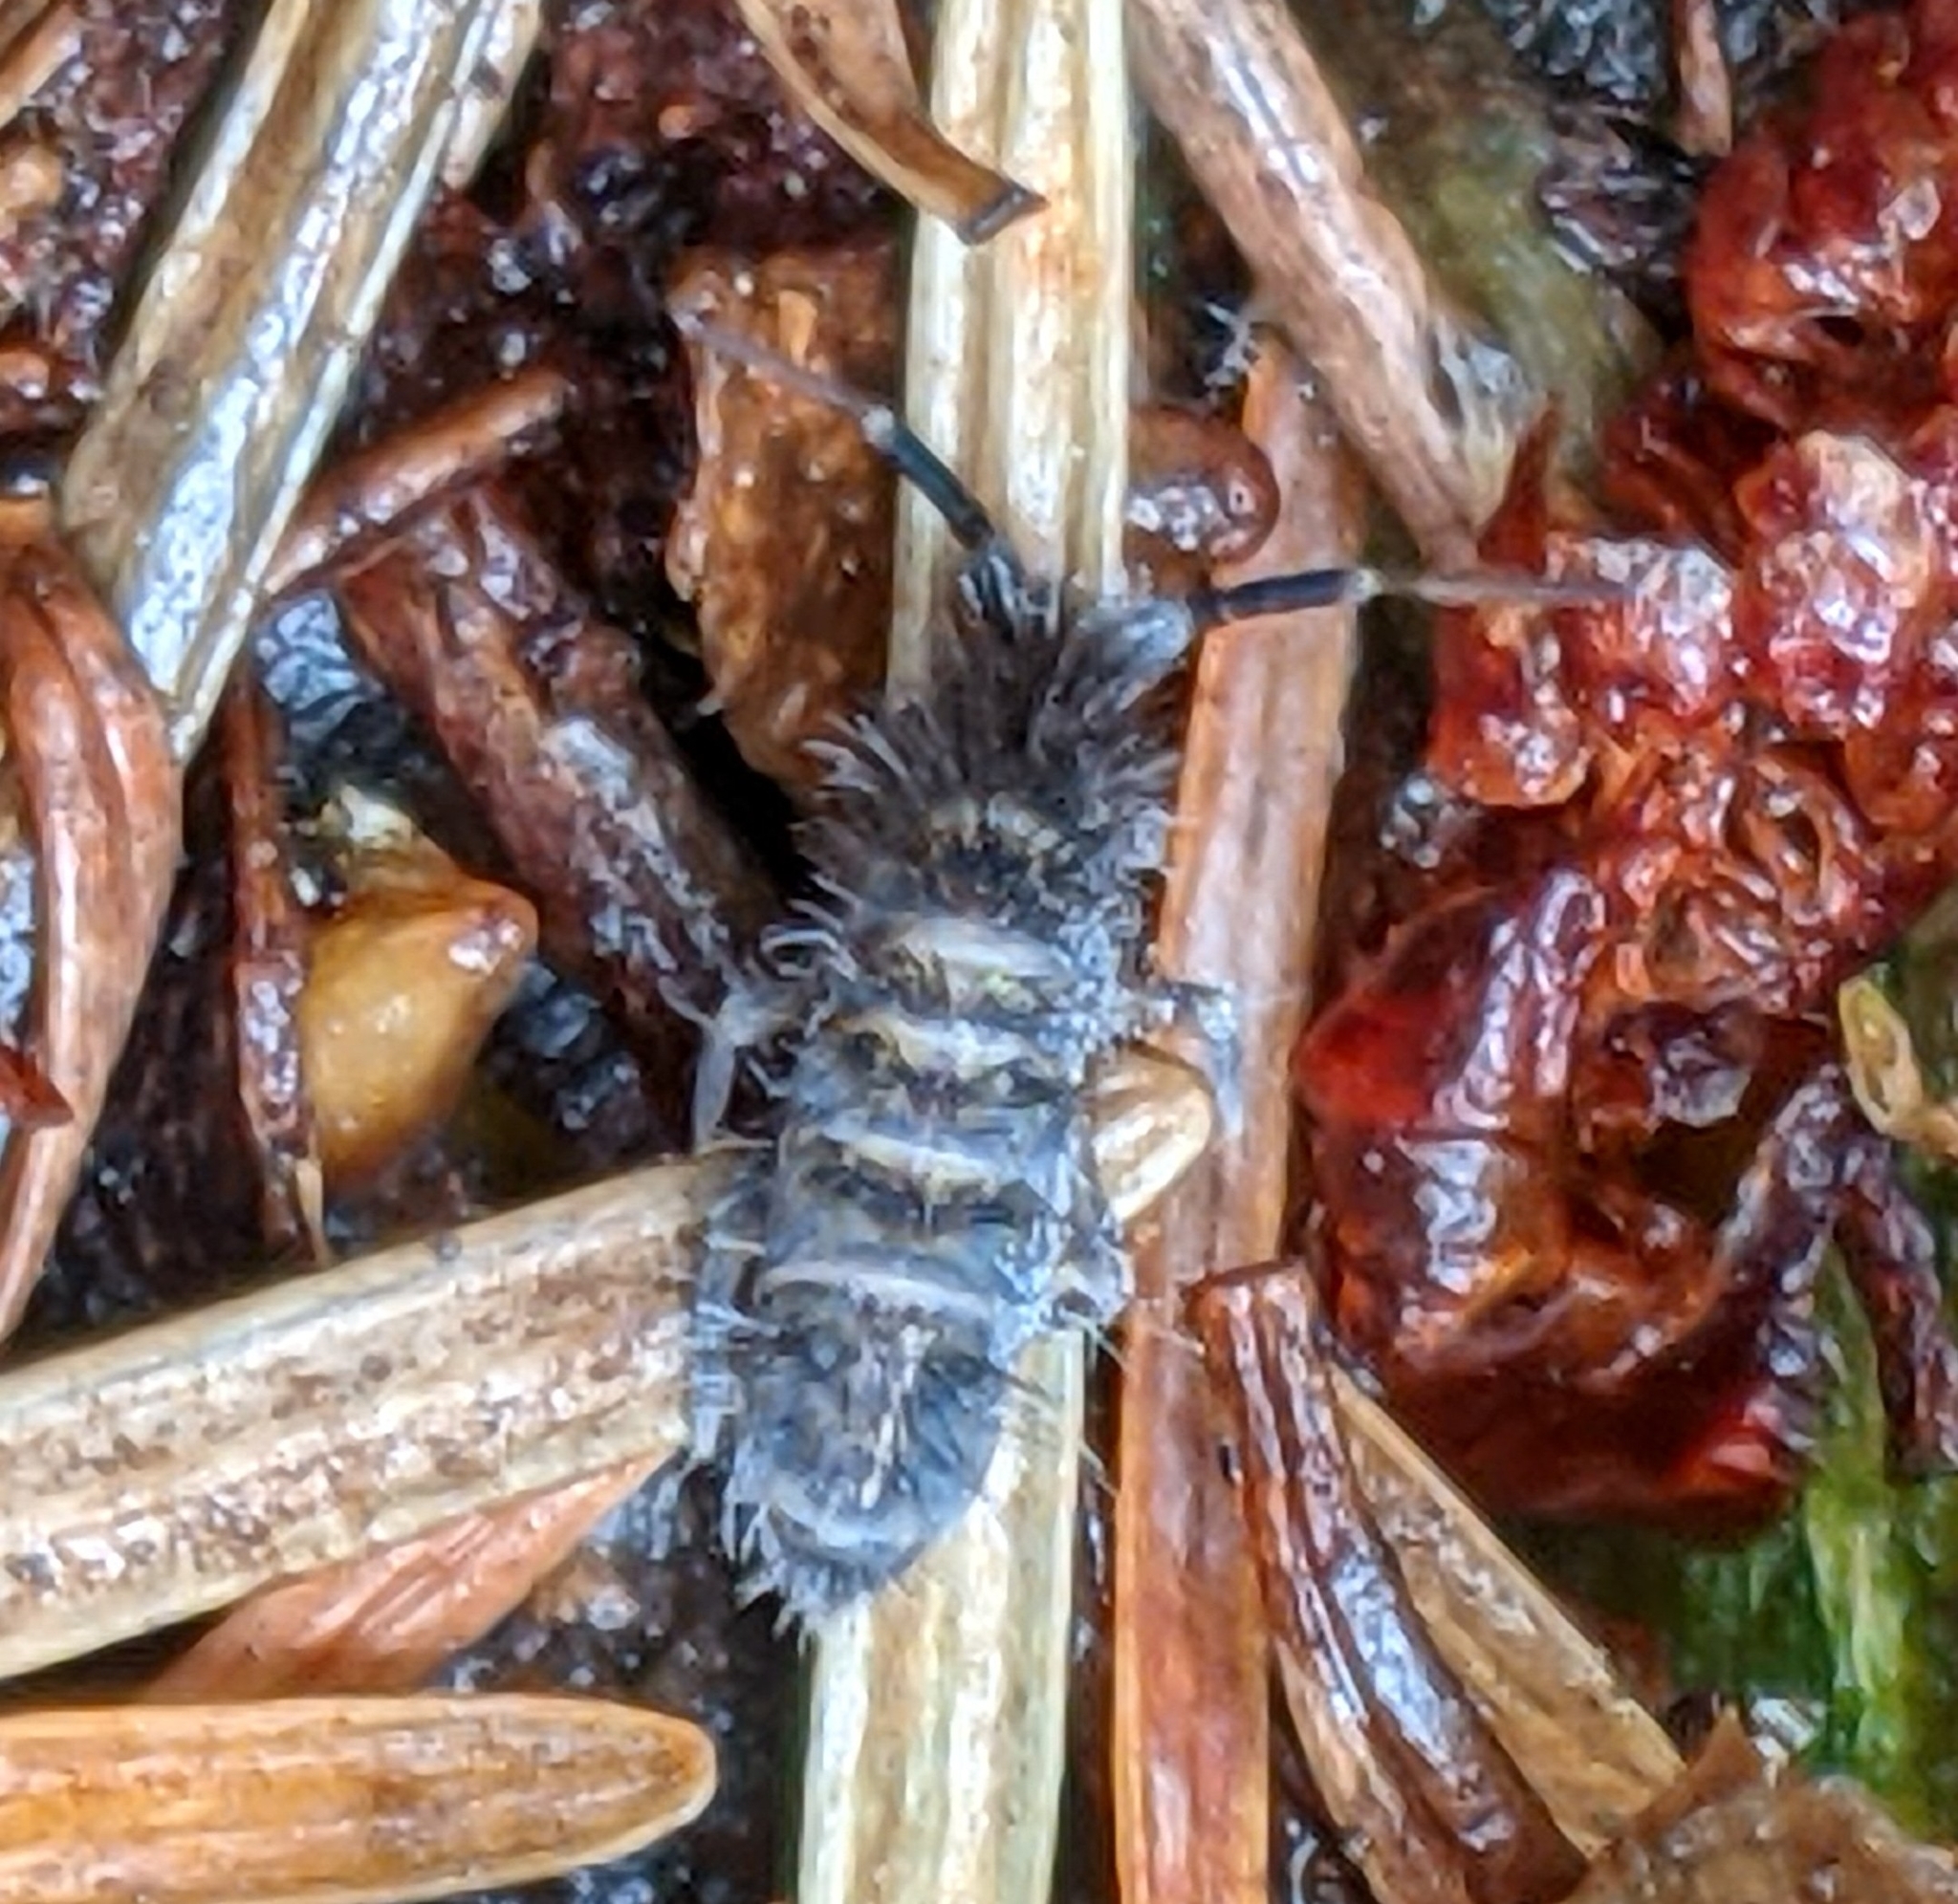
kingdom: Animalia
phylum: Arthropoda
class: Collembola
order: Entomobryomorpha
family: Orchesellidae
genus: Orchesella
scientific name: Orchesella villosa
